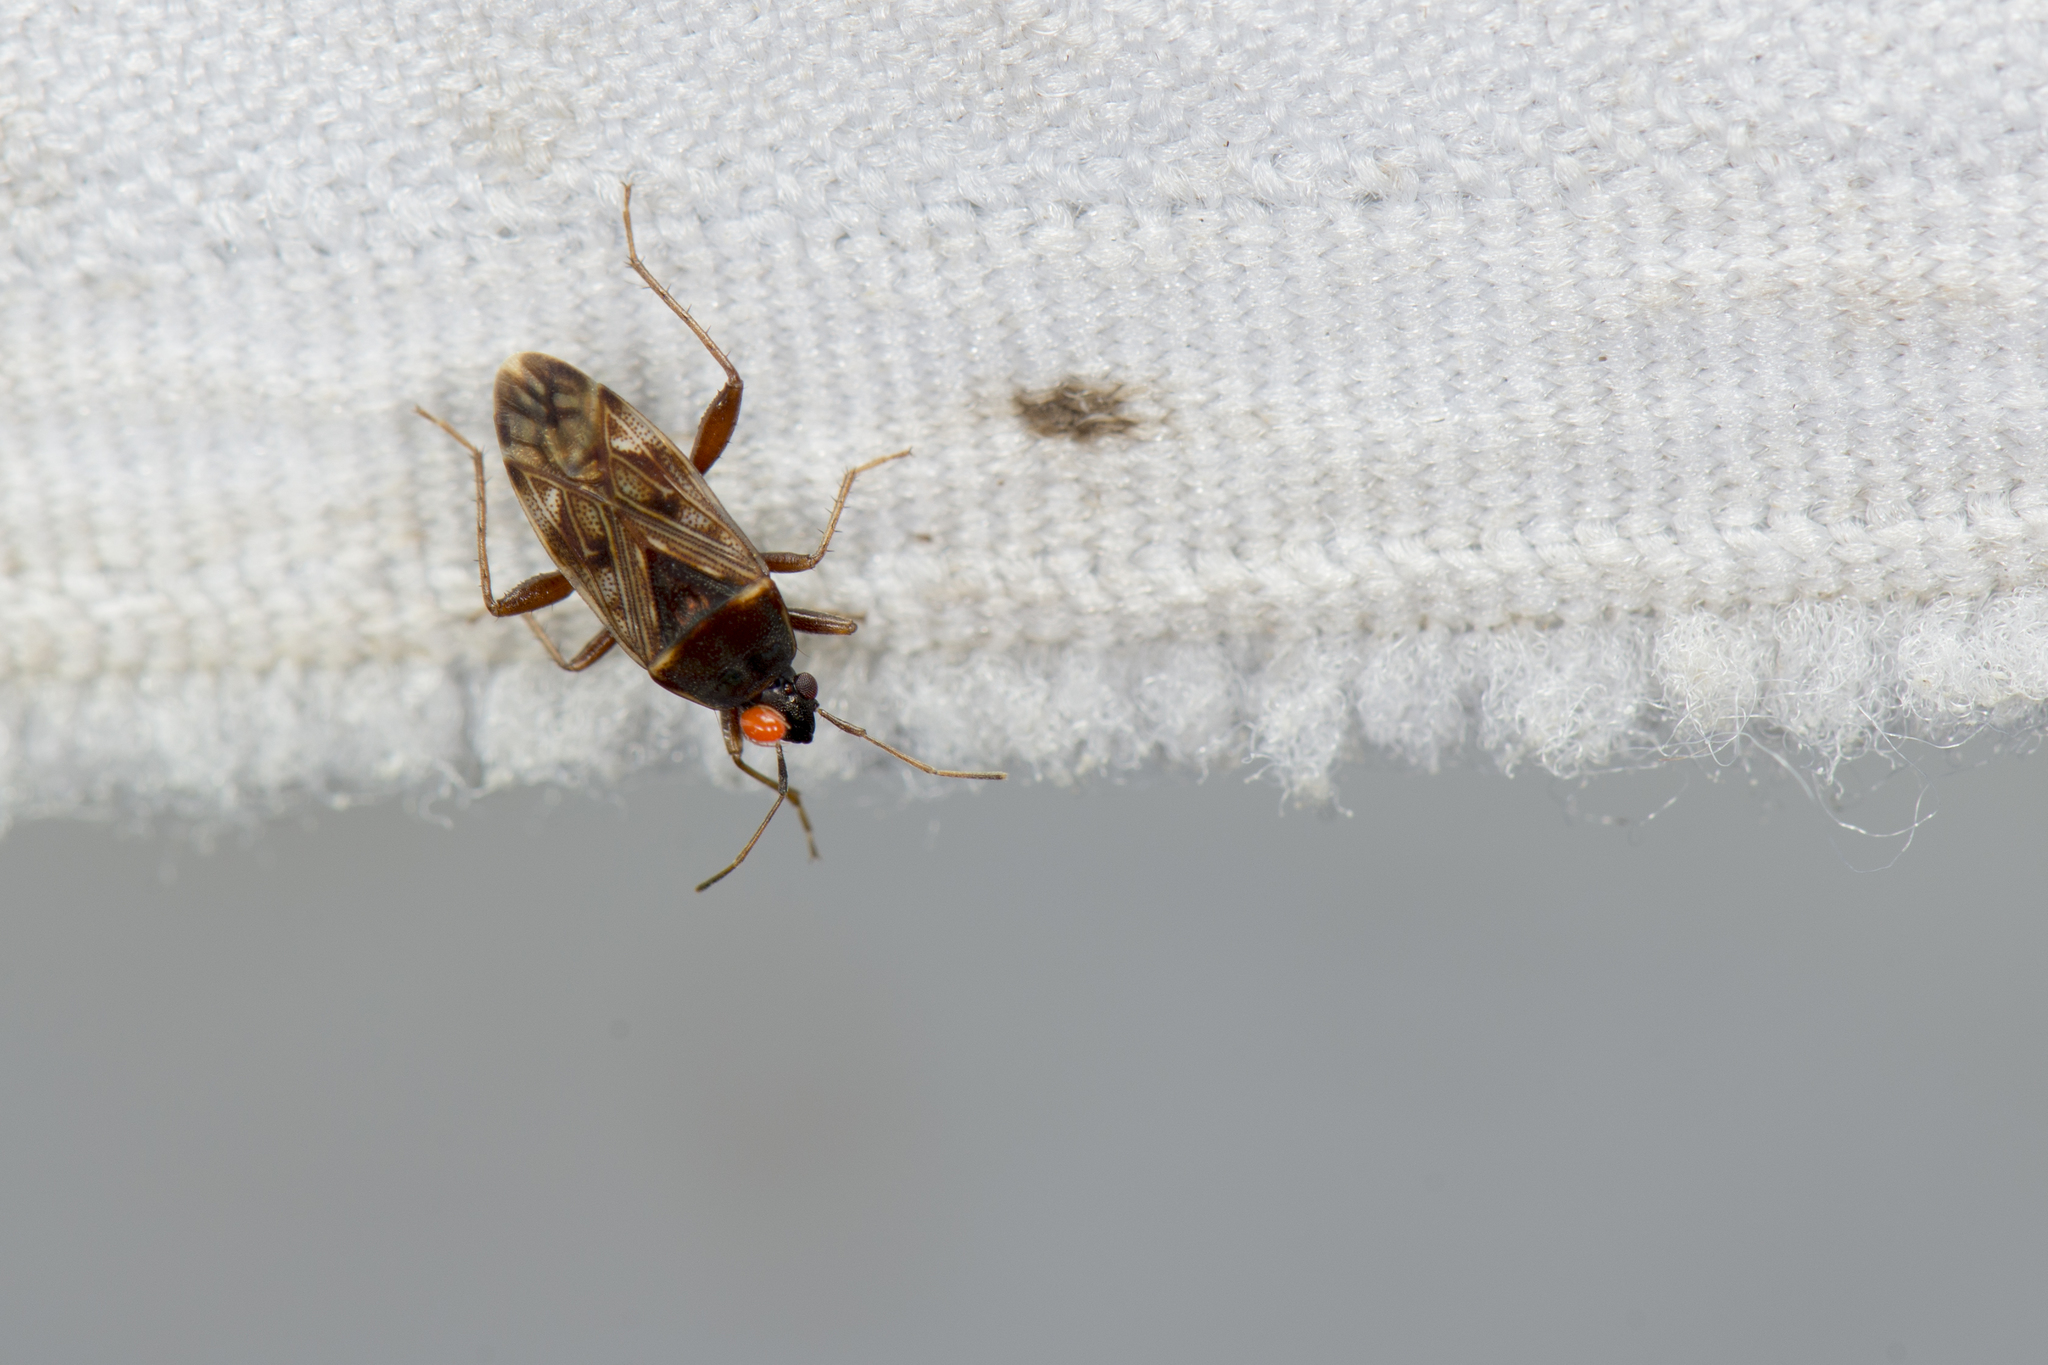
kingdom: Animalia
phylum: Arthropoda
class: Insecta
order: Hemiptera
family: Rhyparochromidae
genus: Neolethaeus
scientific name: Neolethaeus dallasi
